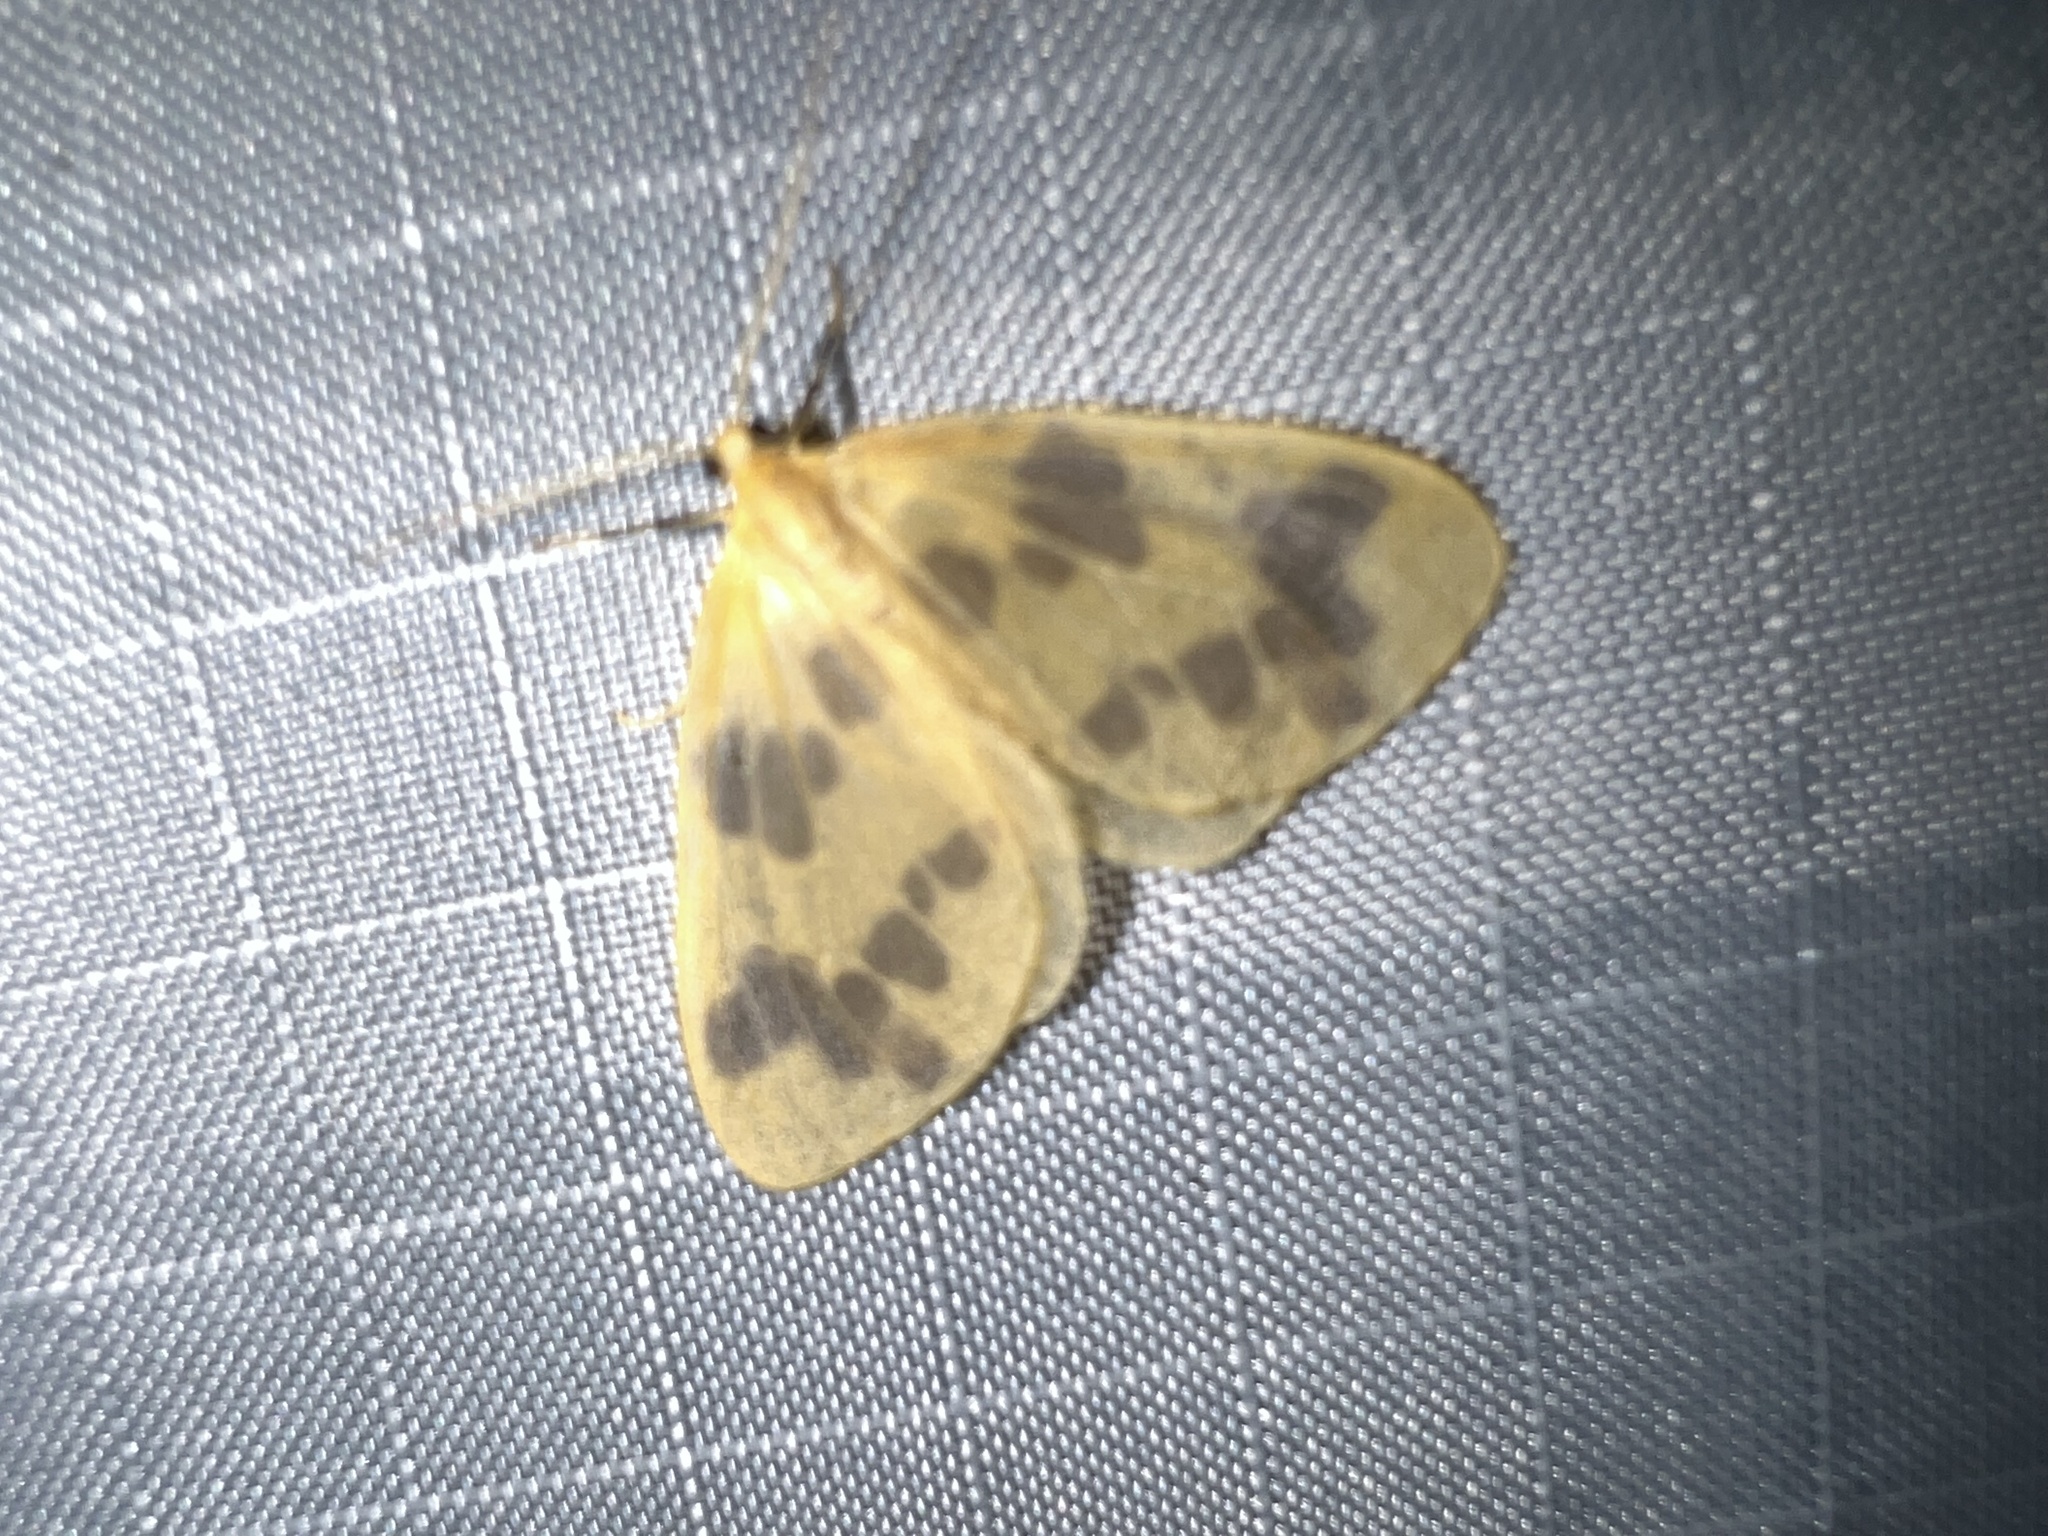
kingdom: Animalia
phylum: Arthropoda
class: Insecta
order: Lepidoptera
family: Geometridae
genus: Eubaphe
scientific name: Eubaphe mendica
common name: Beggar
